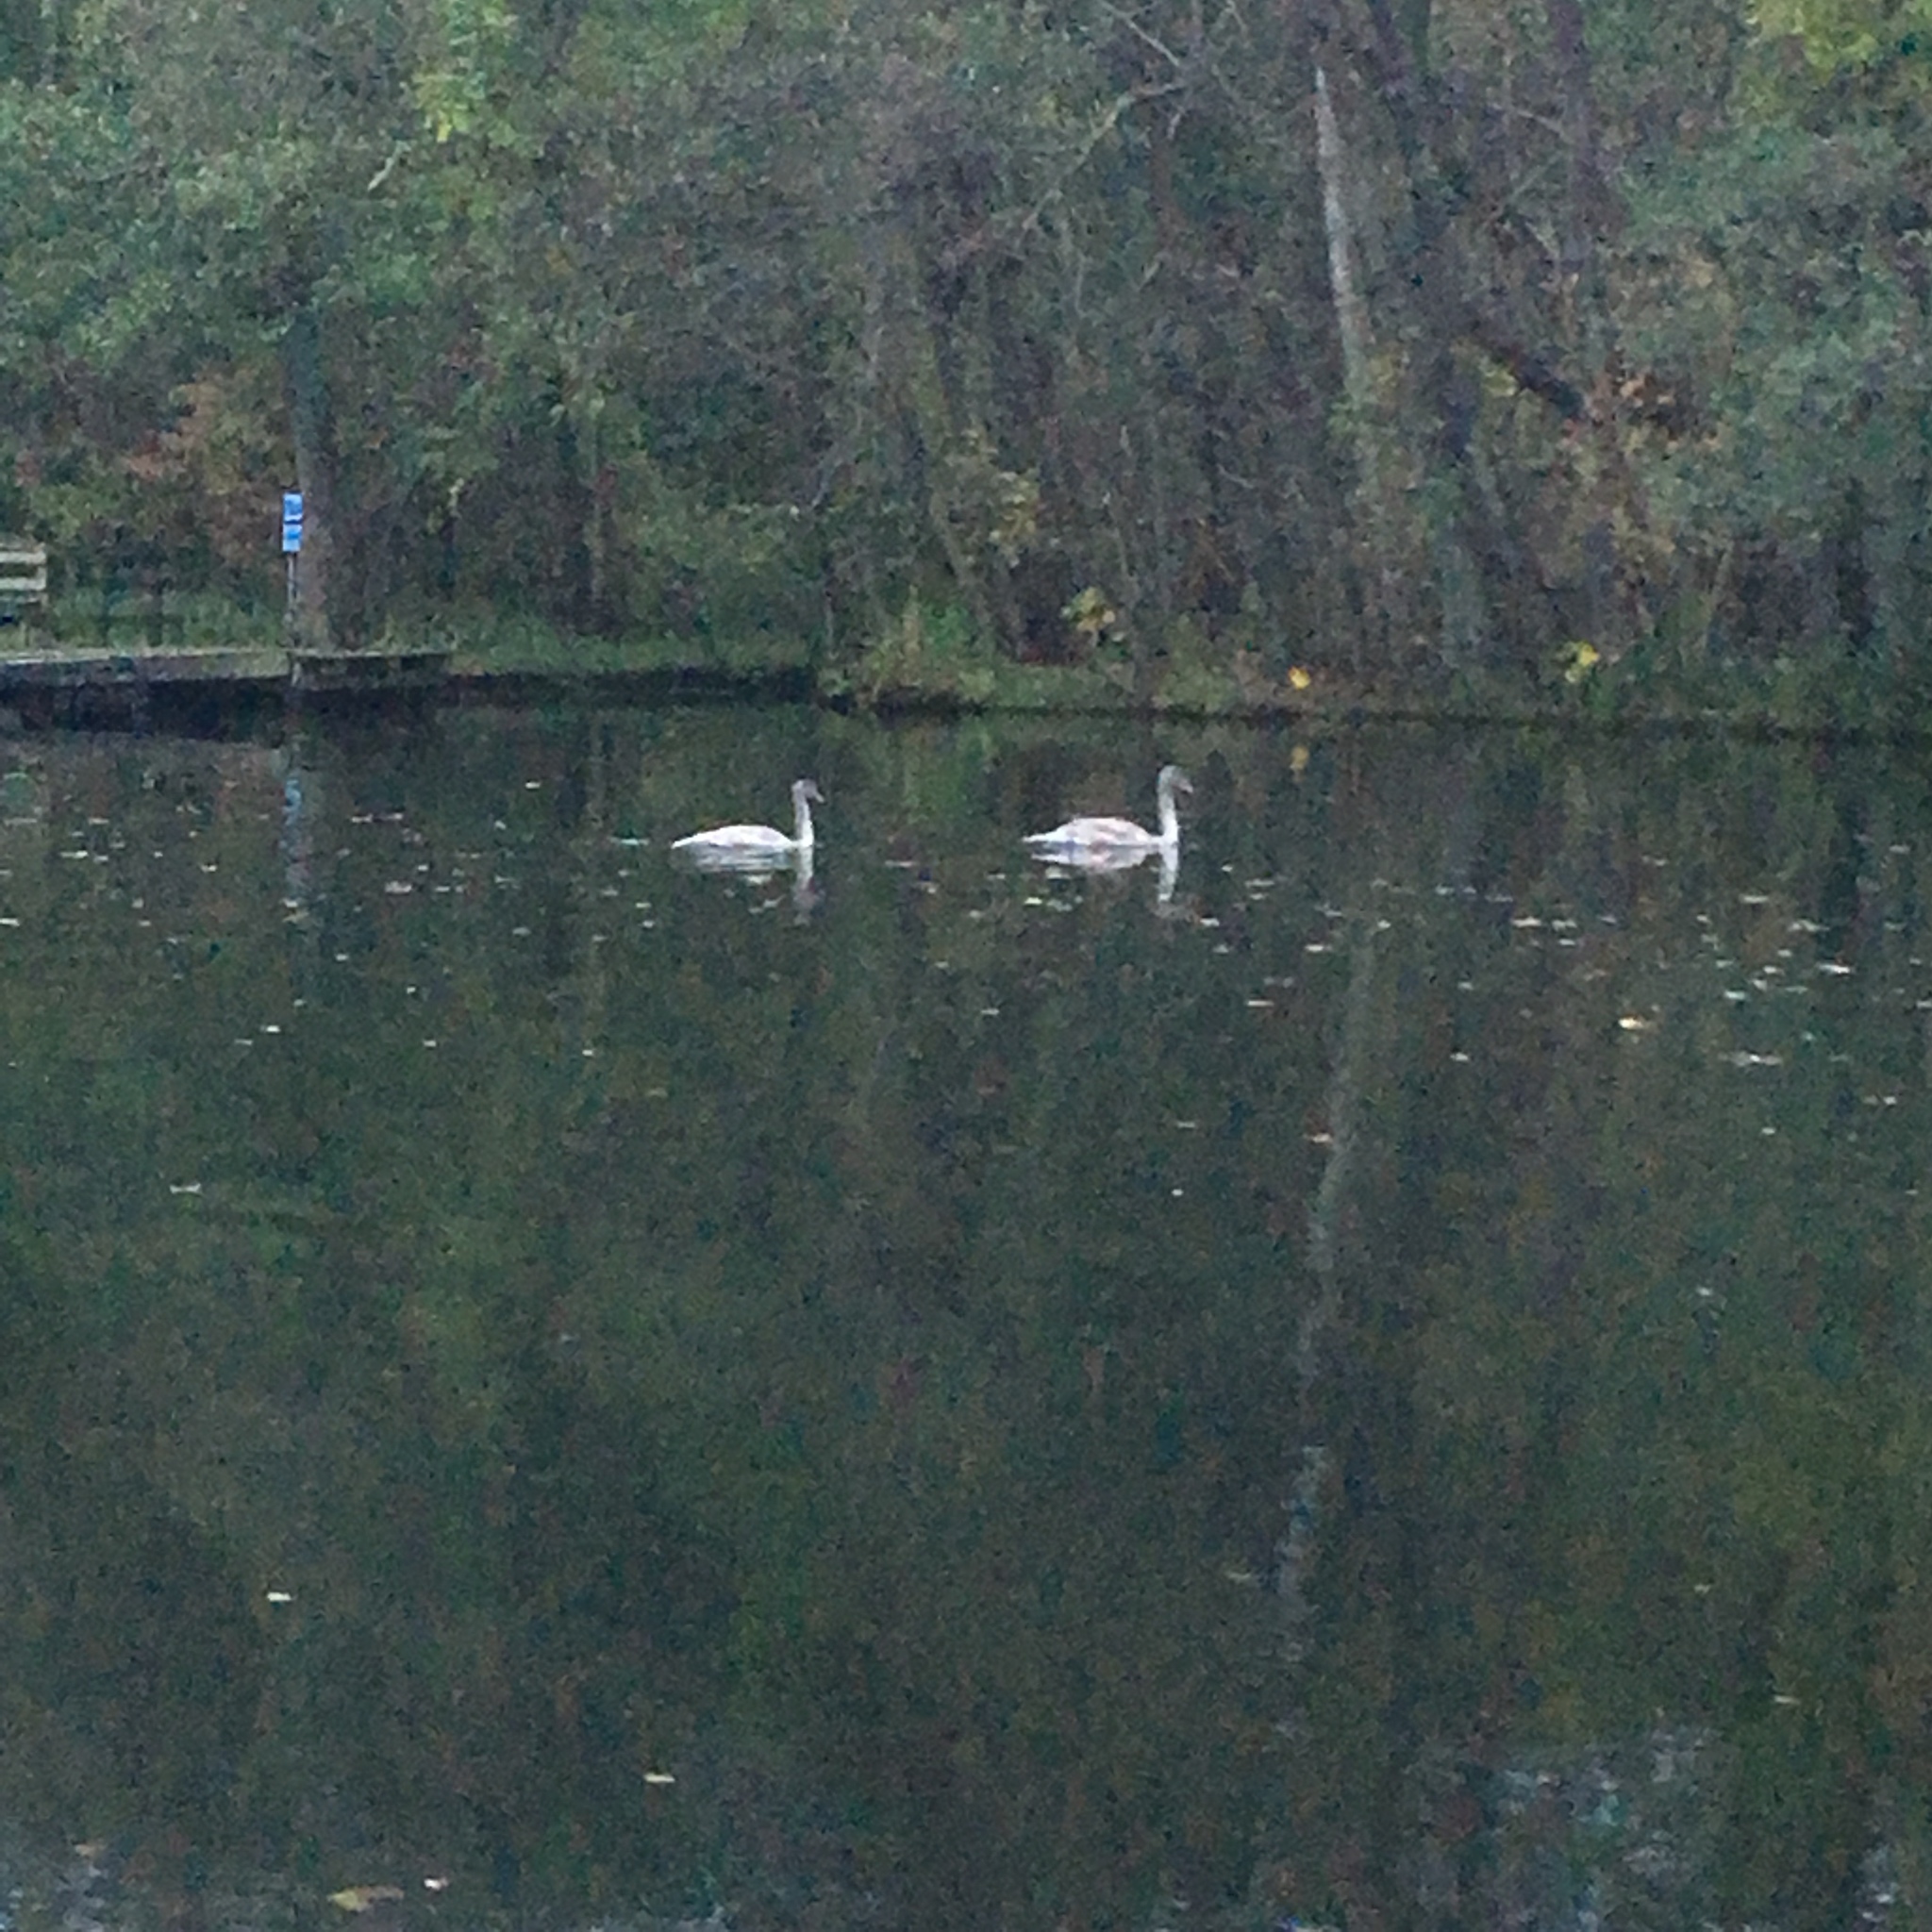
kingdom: Animalia
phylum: Chordata
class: Aves
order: Anseriformes
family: Anatidae
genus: Cygnus
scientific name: Cygnus olor
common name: Mute swan
